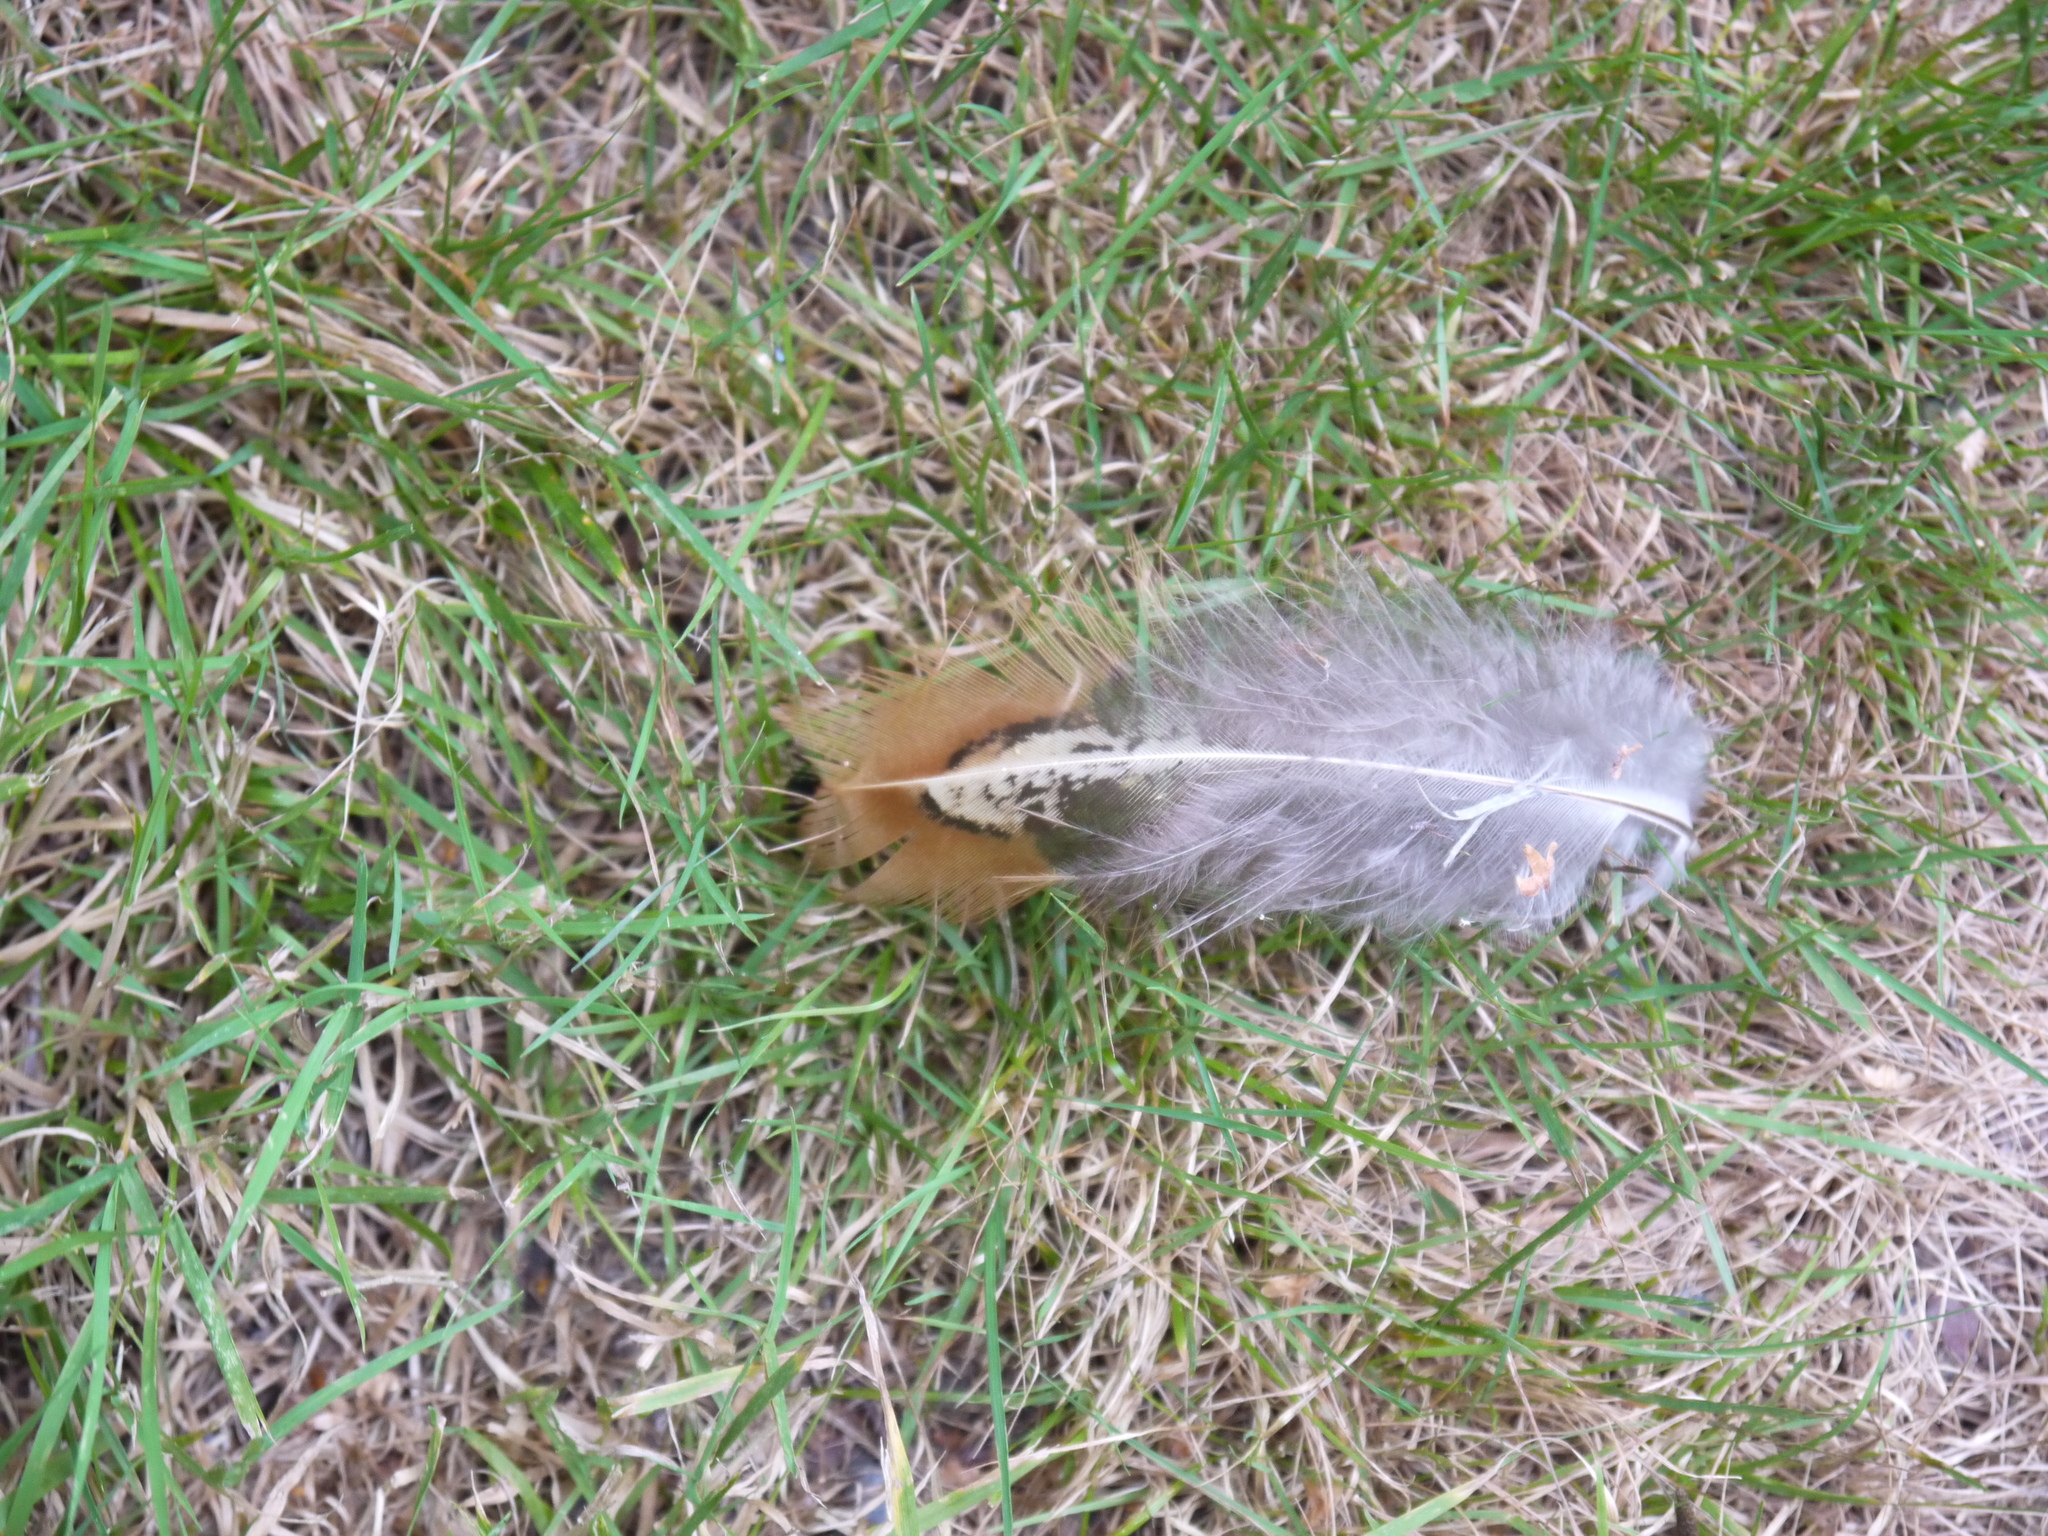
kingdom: Animalia
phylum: Chordata
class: Aves
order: Galliformes
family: Phasianidae
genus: Phasianus
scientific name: Phasianus colchicus
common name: Common pheasant
